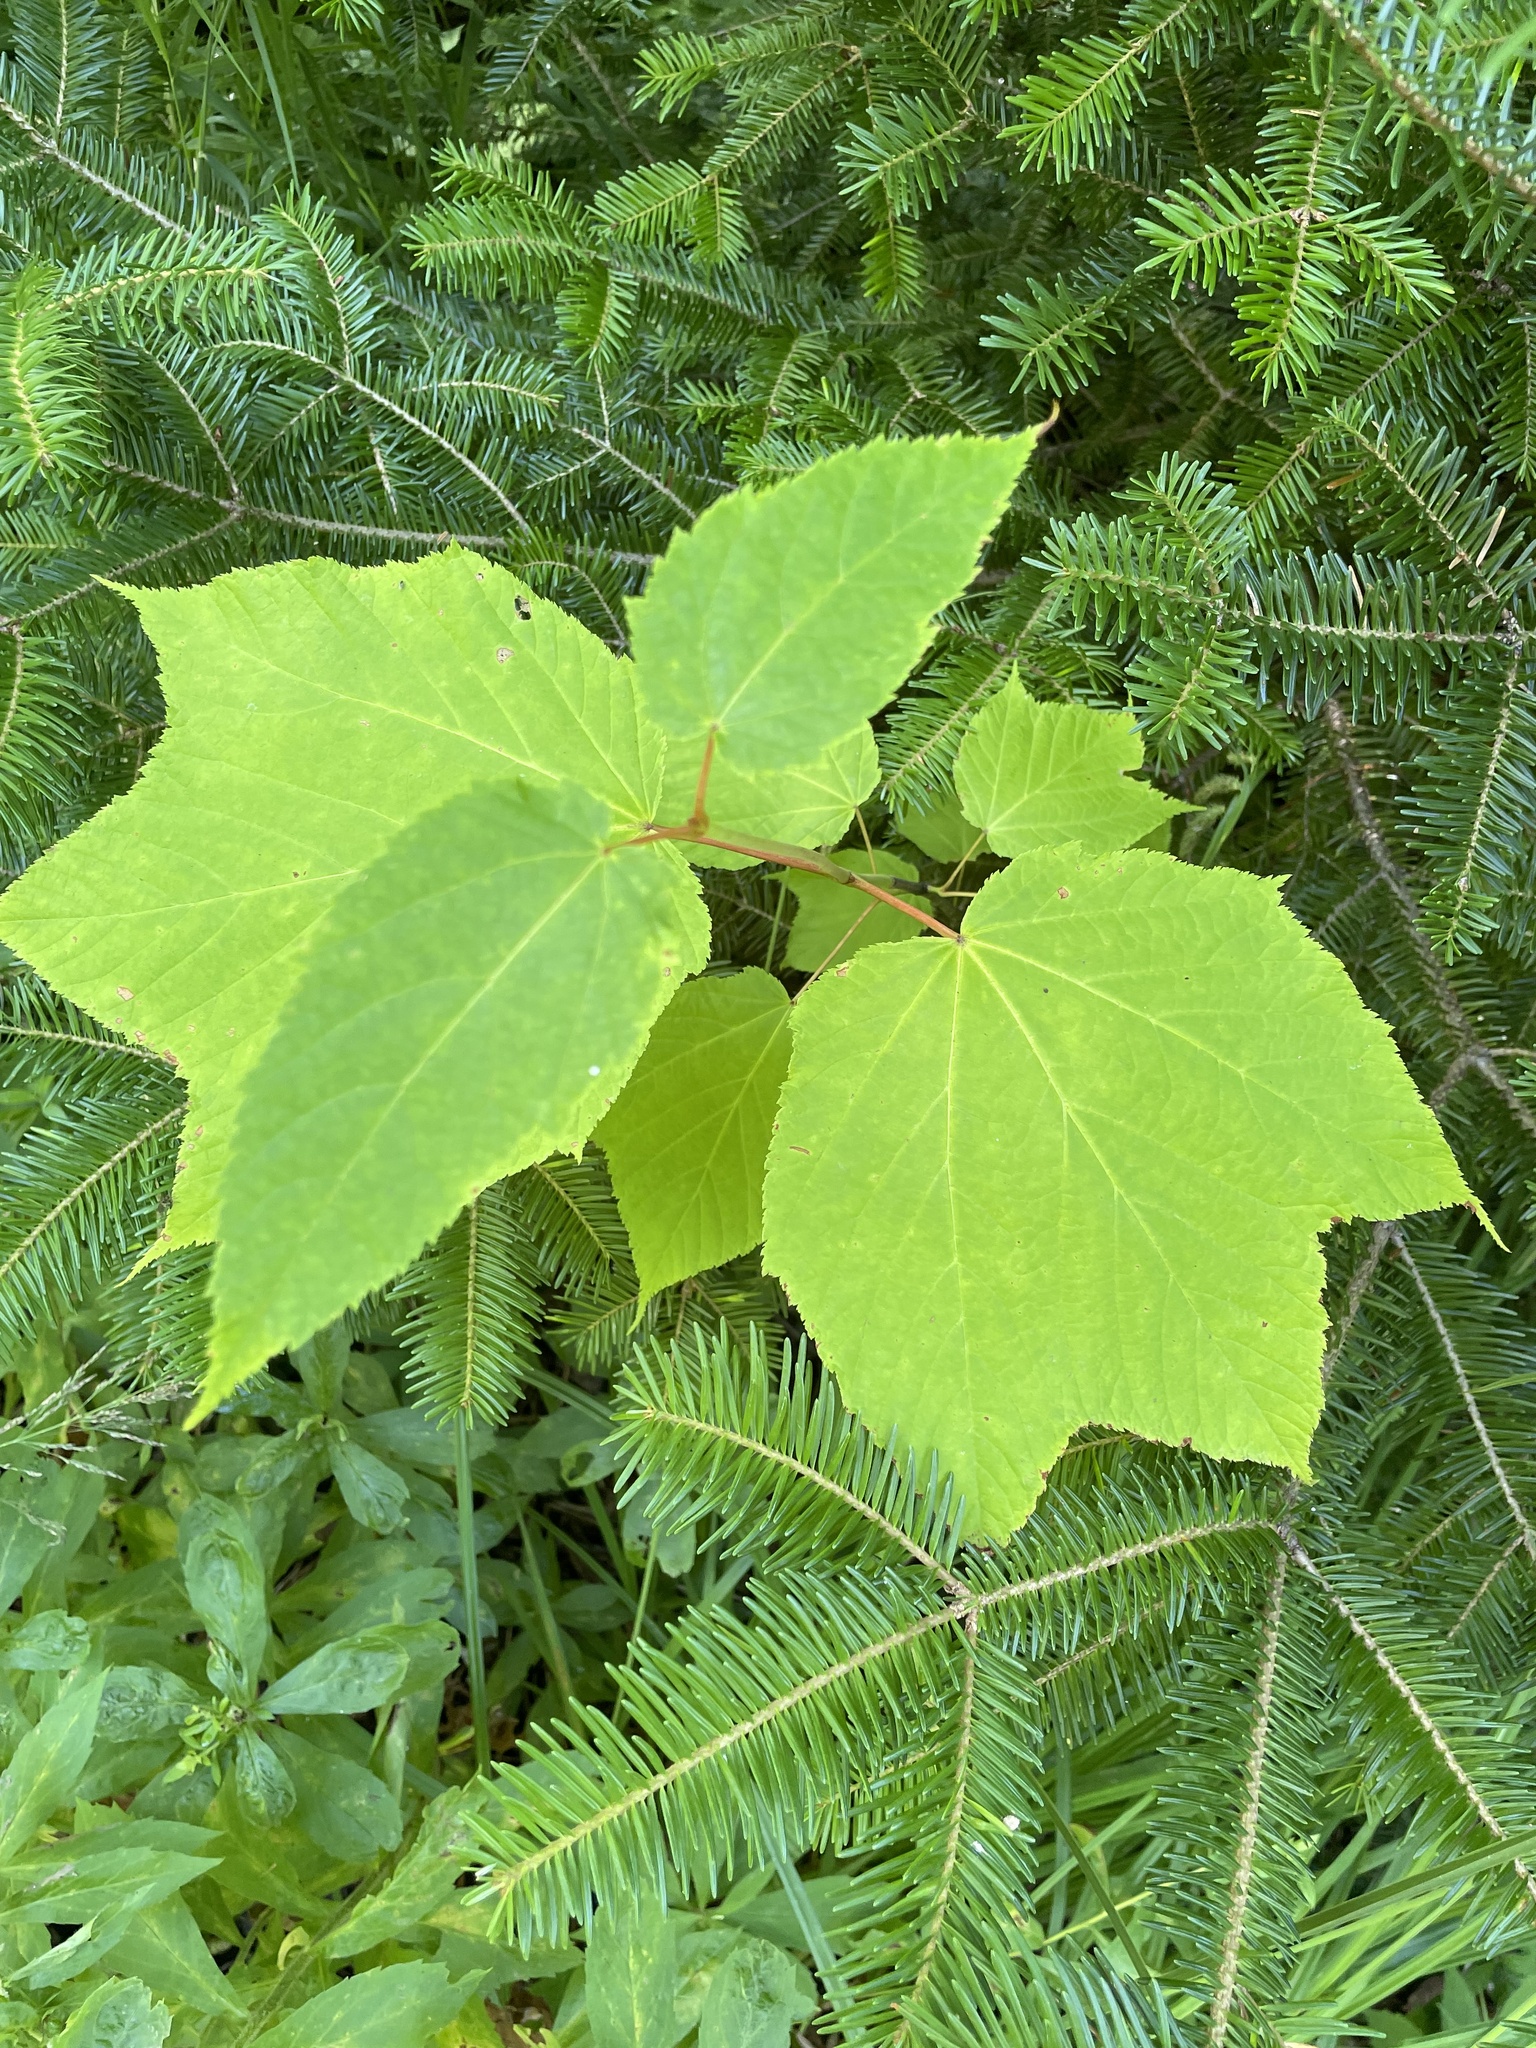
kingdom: Plantae
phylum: Tracheophyta
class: Magnoliopsida
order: Sapindales
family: Sapindaceae
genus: Acer
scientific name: Acer pensylvanicum
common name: Moosewood
